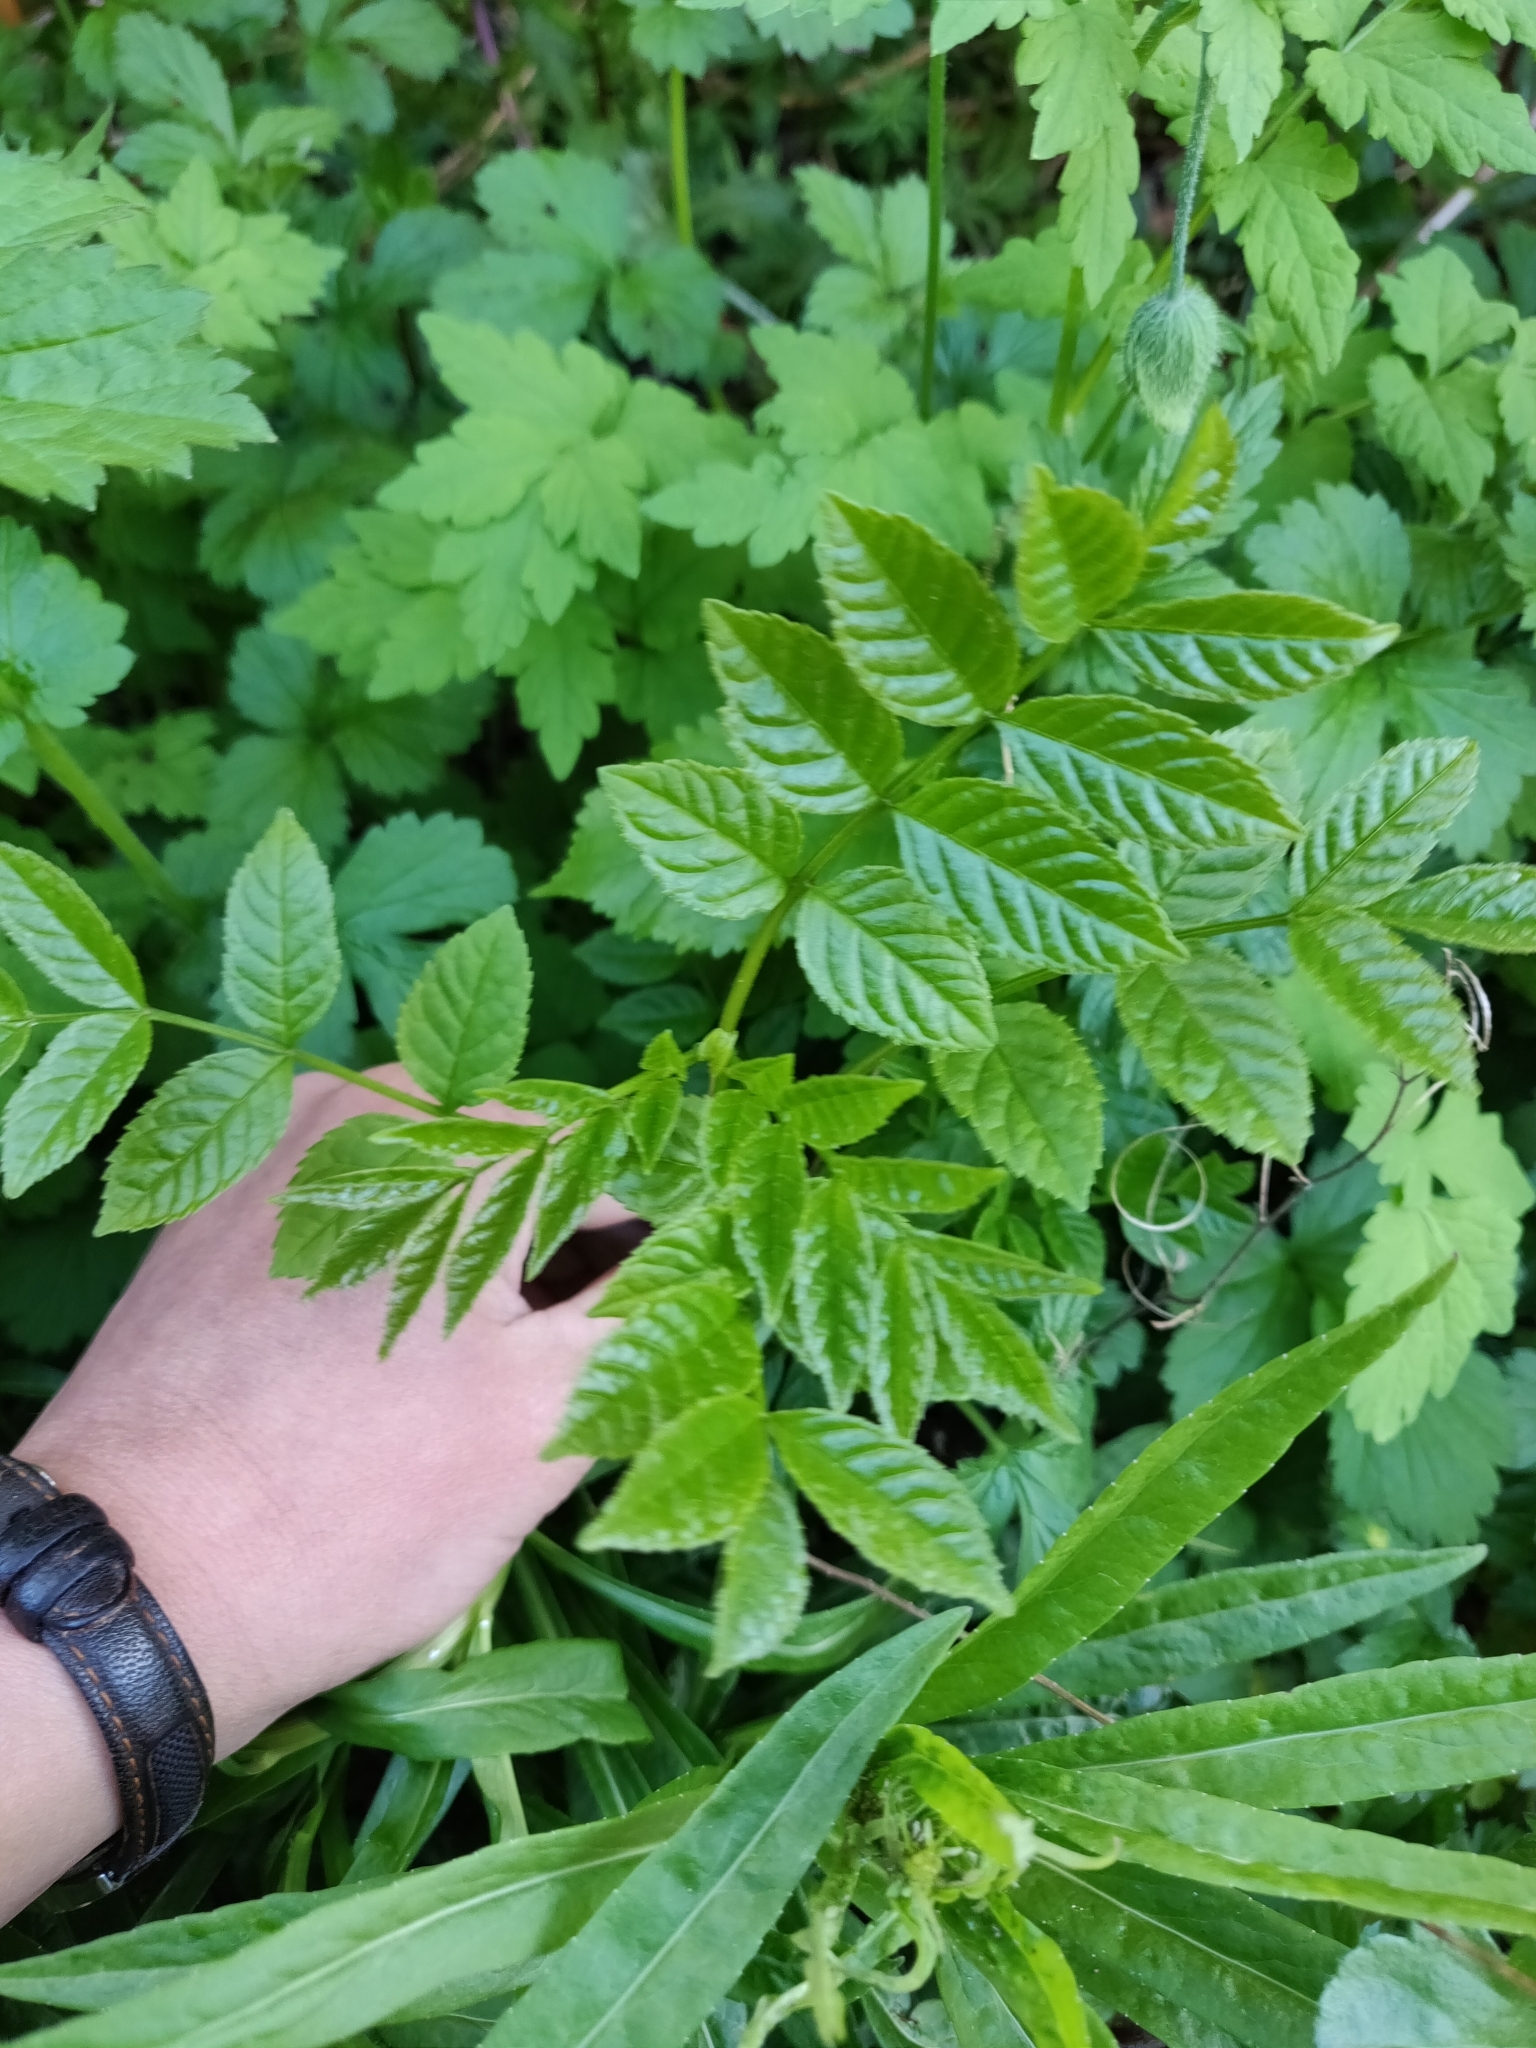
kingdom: Plantae
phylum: Tracheophyta
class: Magnoliopsida
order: Lamiales
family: Oleaceae
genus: Fraxinus
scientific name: Fraxinus excelsior
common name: European ash
